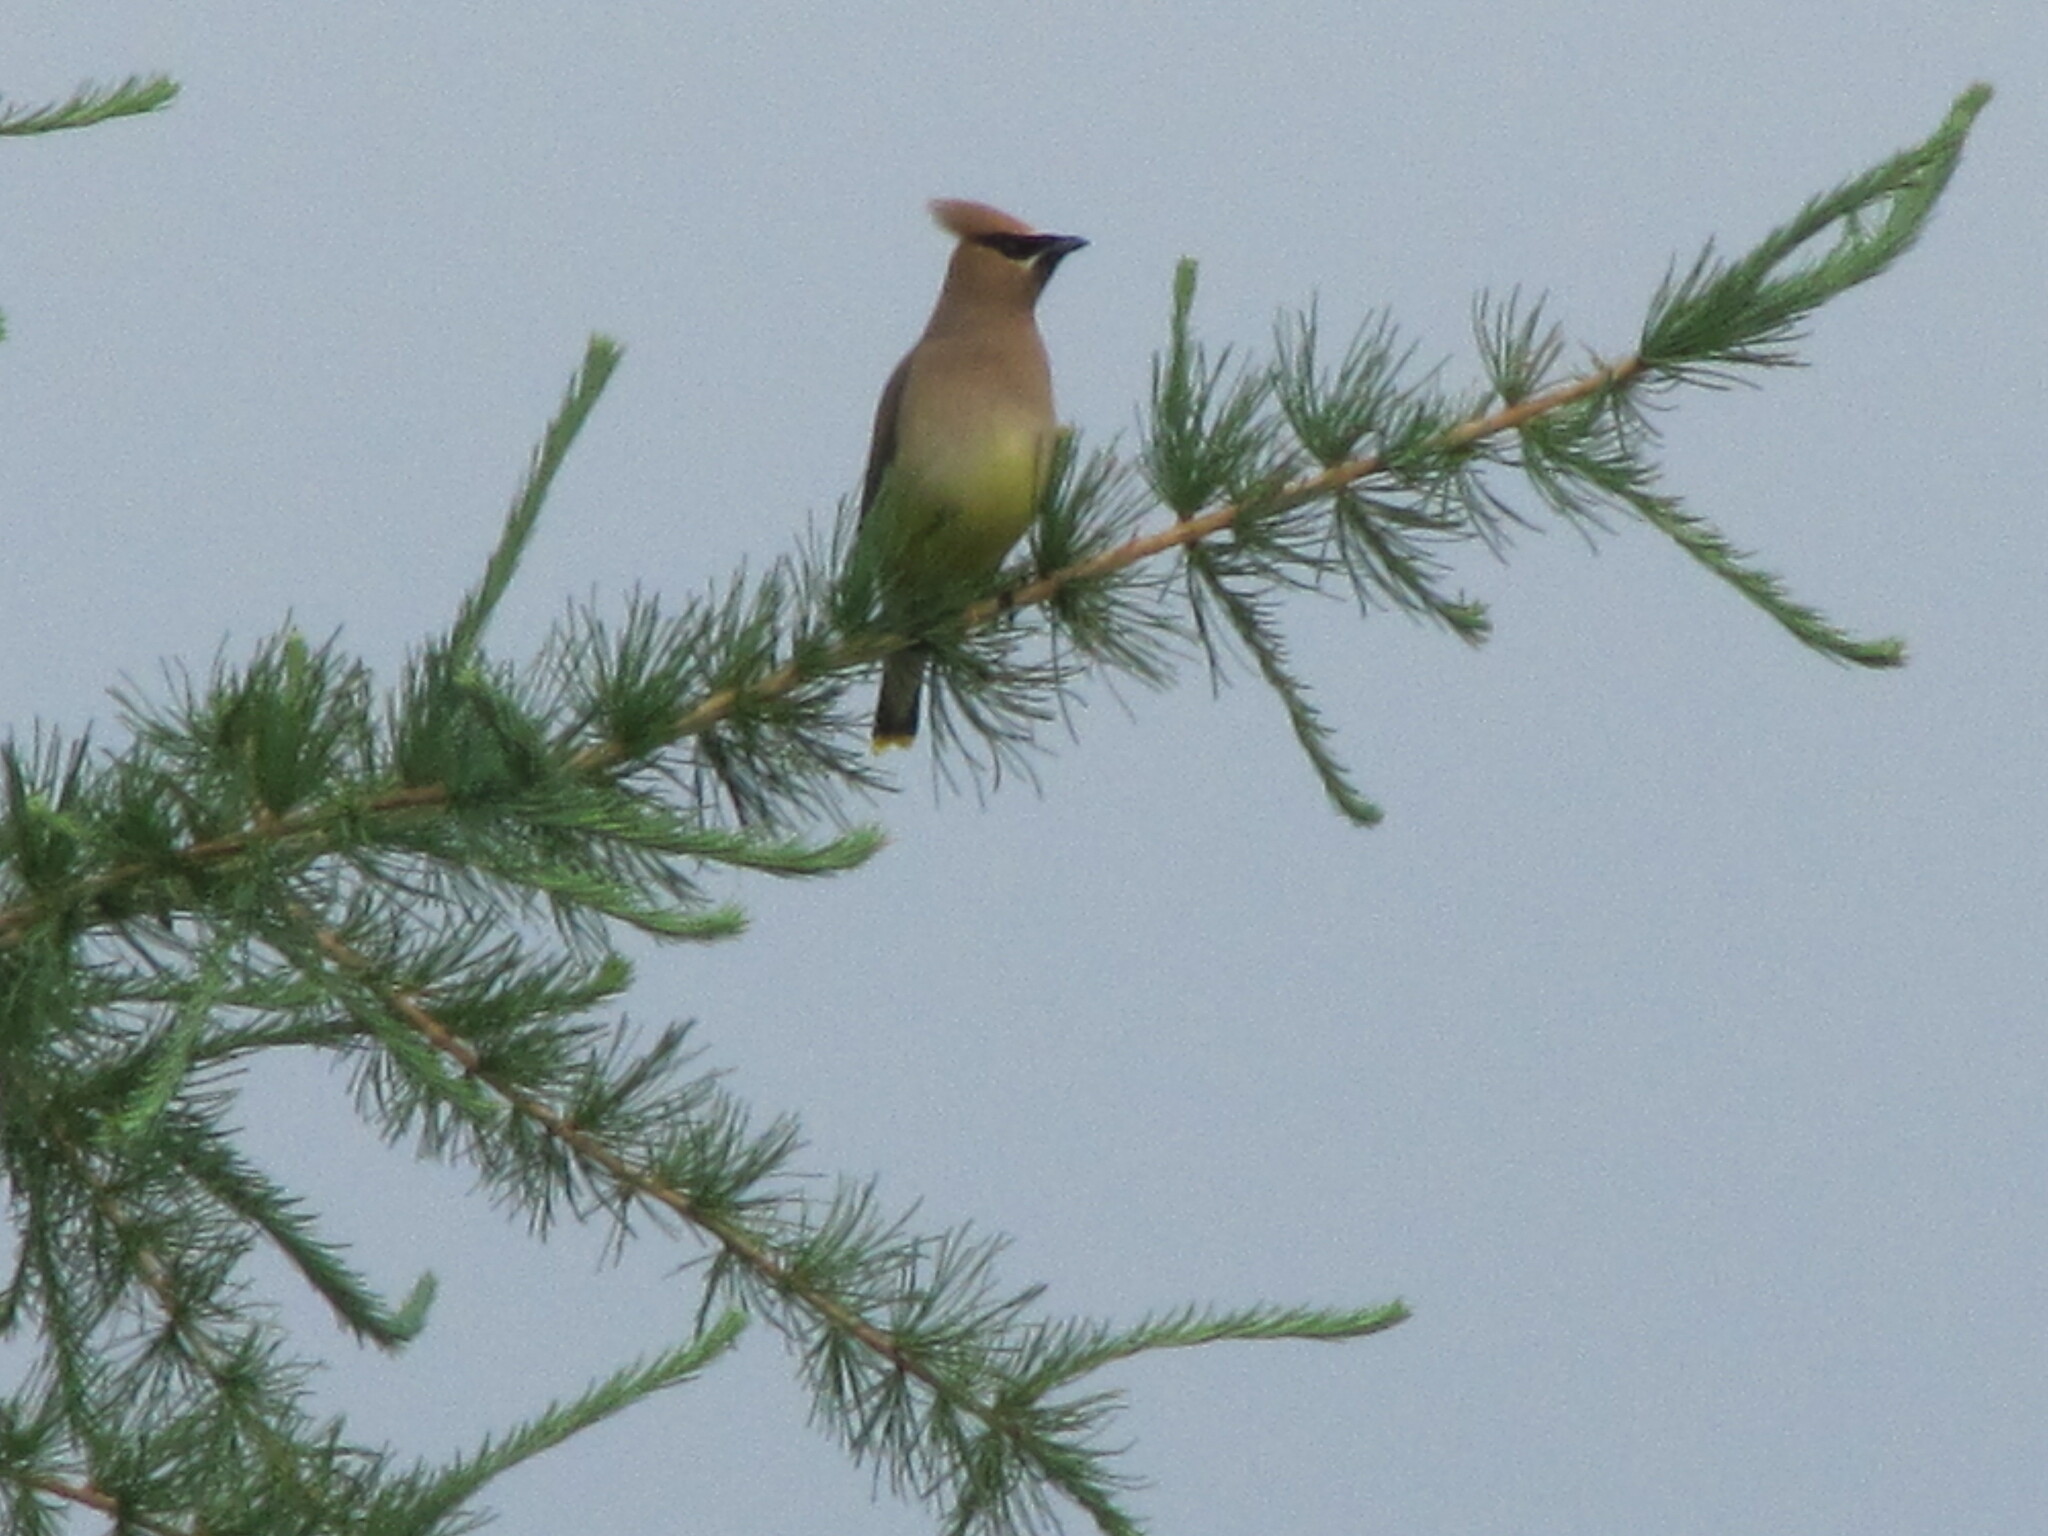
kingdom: Animalia
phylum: Chordata
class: Aves
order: Passeriformes
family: Bombycillidae
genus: Bombycilla
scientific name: Bombycilla cedrorum
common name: Cedar waxwing
